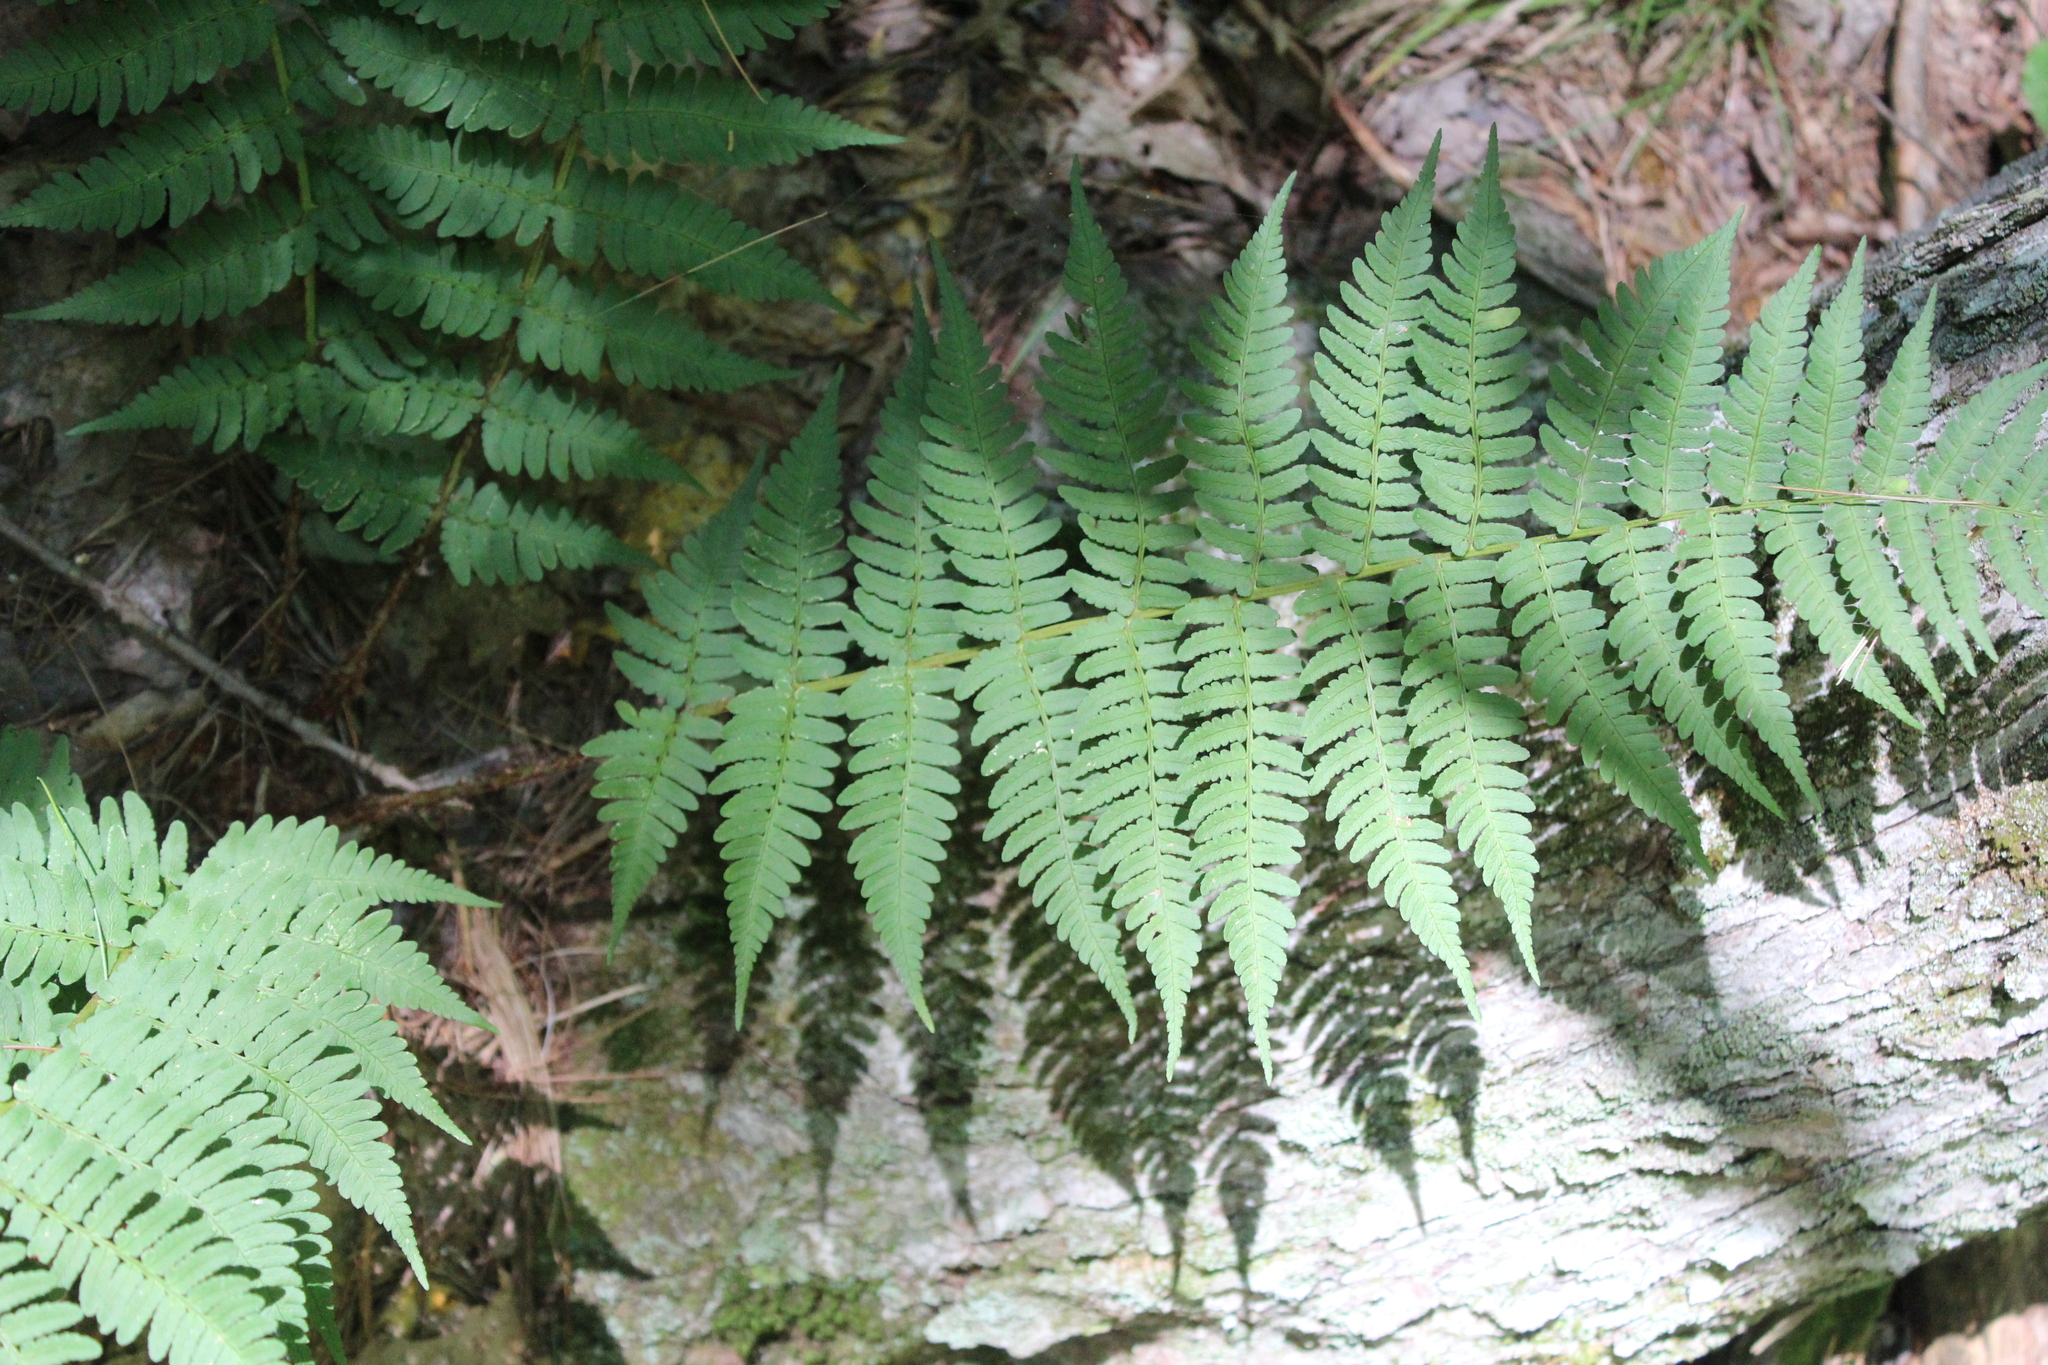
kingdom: Plantae
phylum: Tracheophyta
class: Polypodiopsida
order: Polypodiales
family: Dryopteridaceae
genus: Dryopteris
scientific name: Dryopteris marginalis
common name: Marginal wood fern
